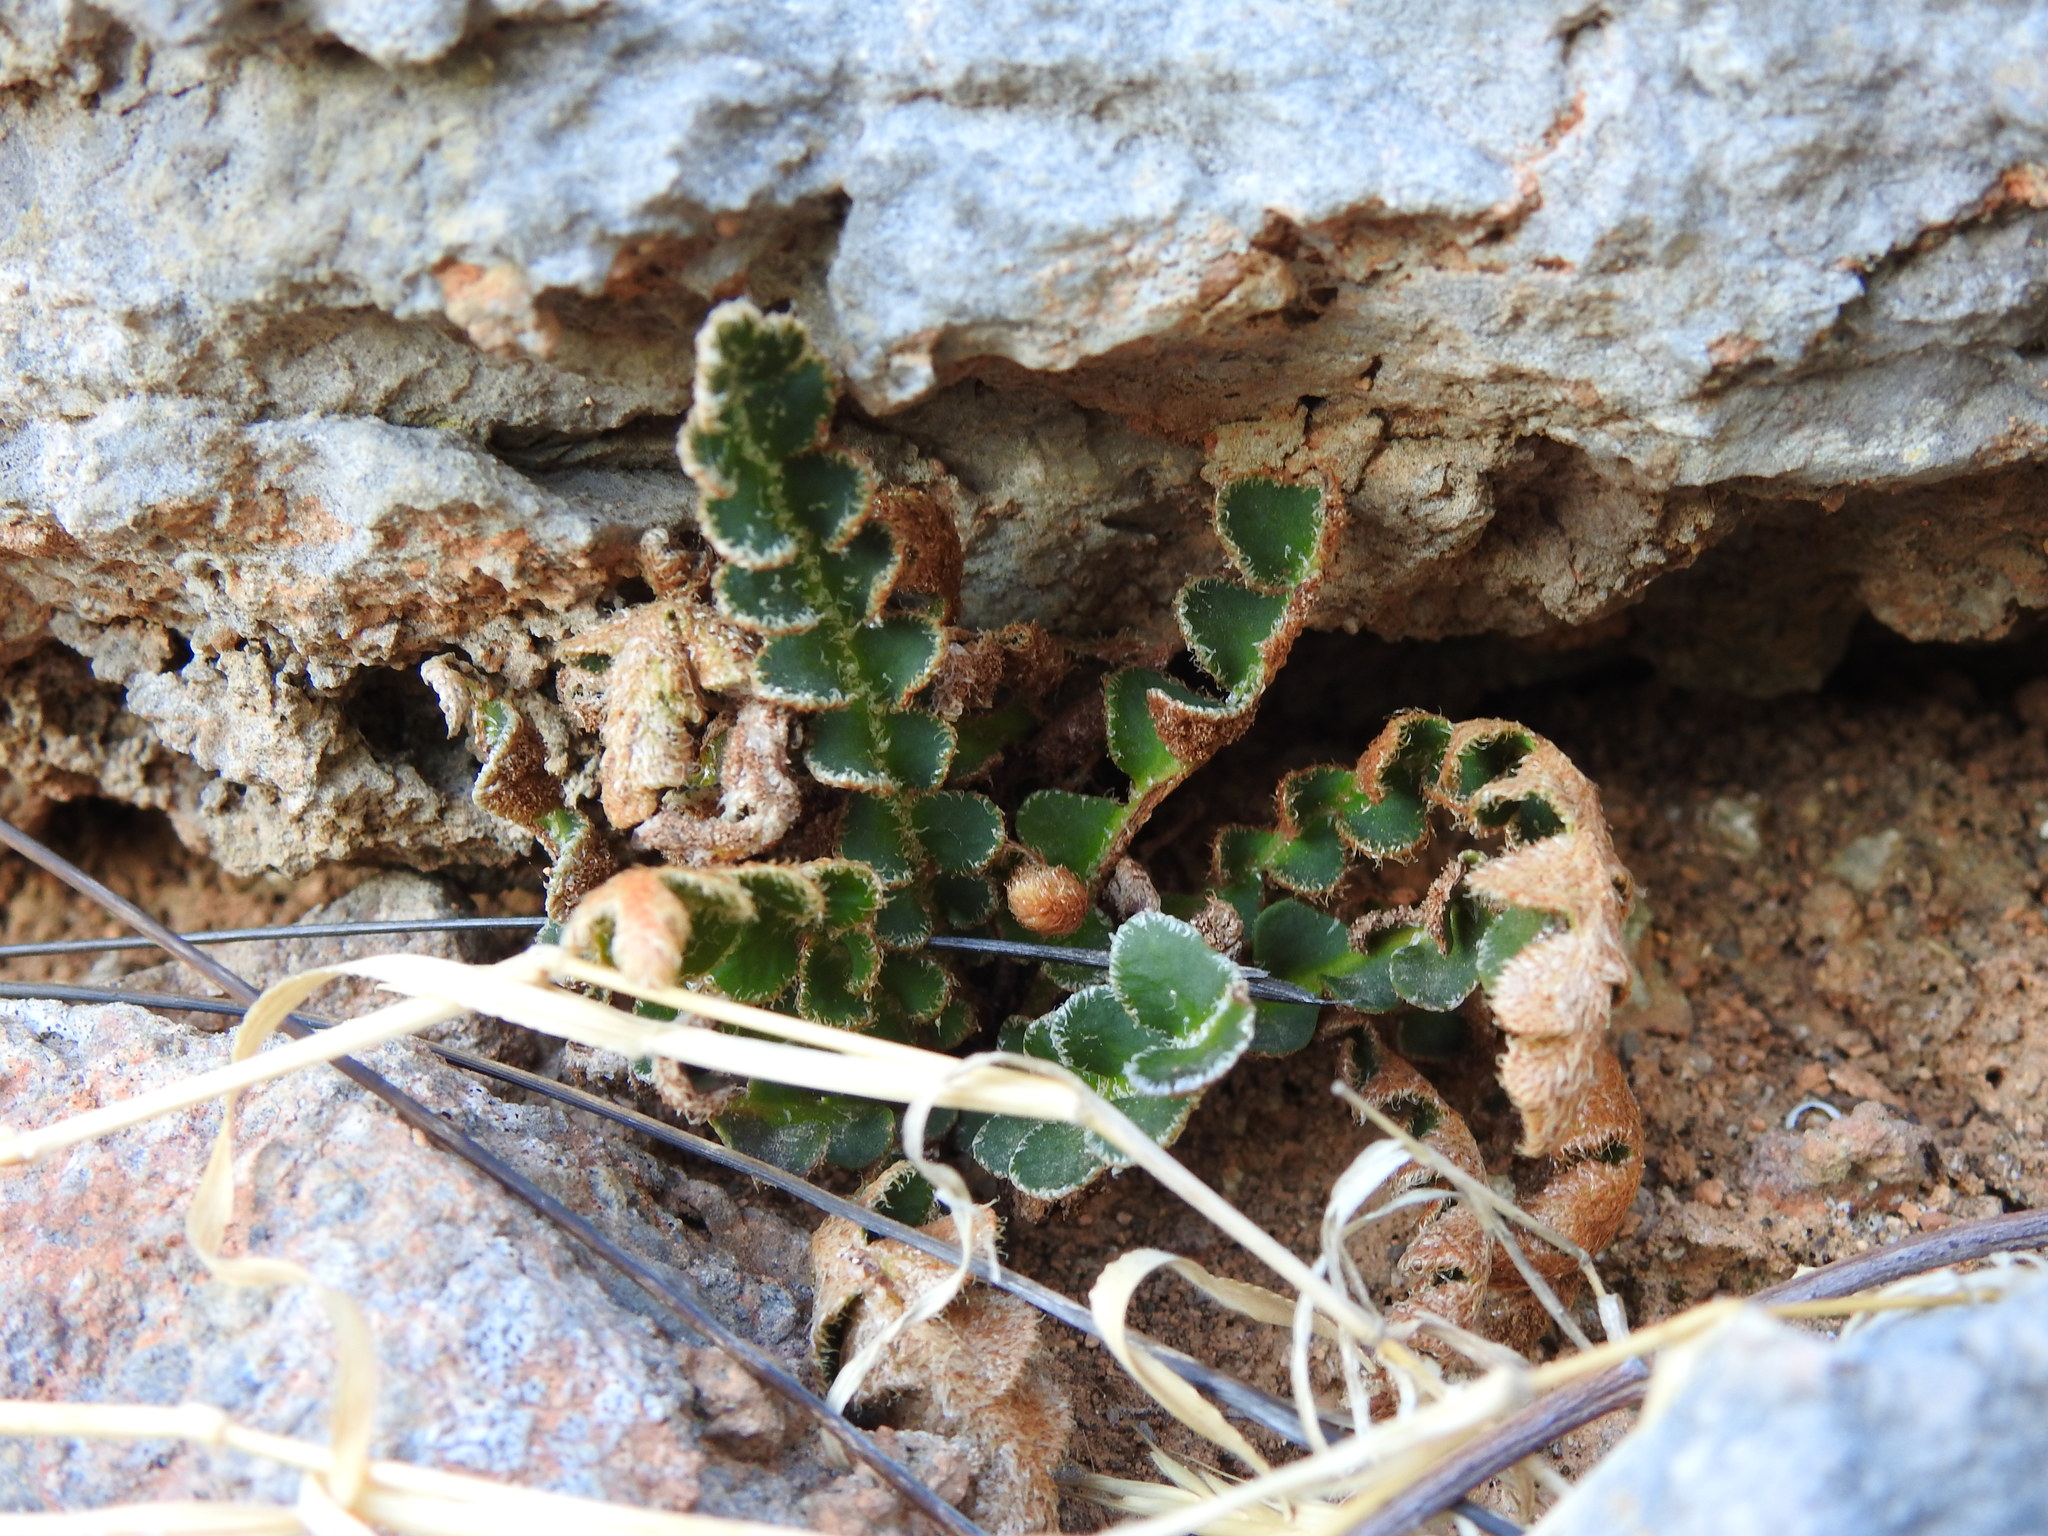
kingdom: Plantae
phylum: Tracheophyta
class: Polypodiopsida
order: Polypodiales
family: Aspleniaceae
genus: Asplenium
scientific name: Asplenium ceterach
